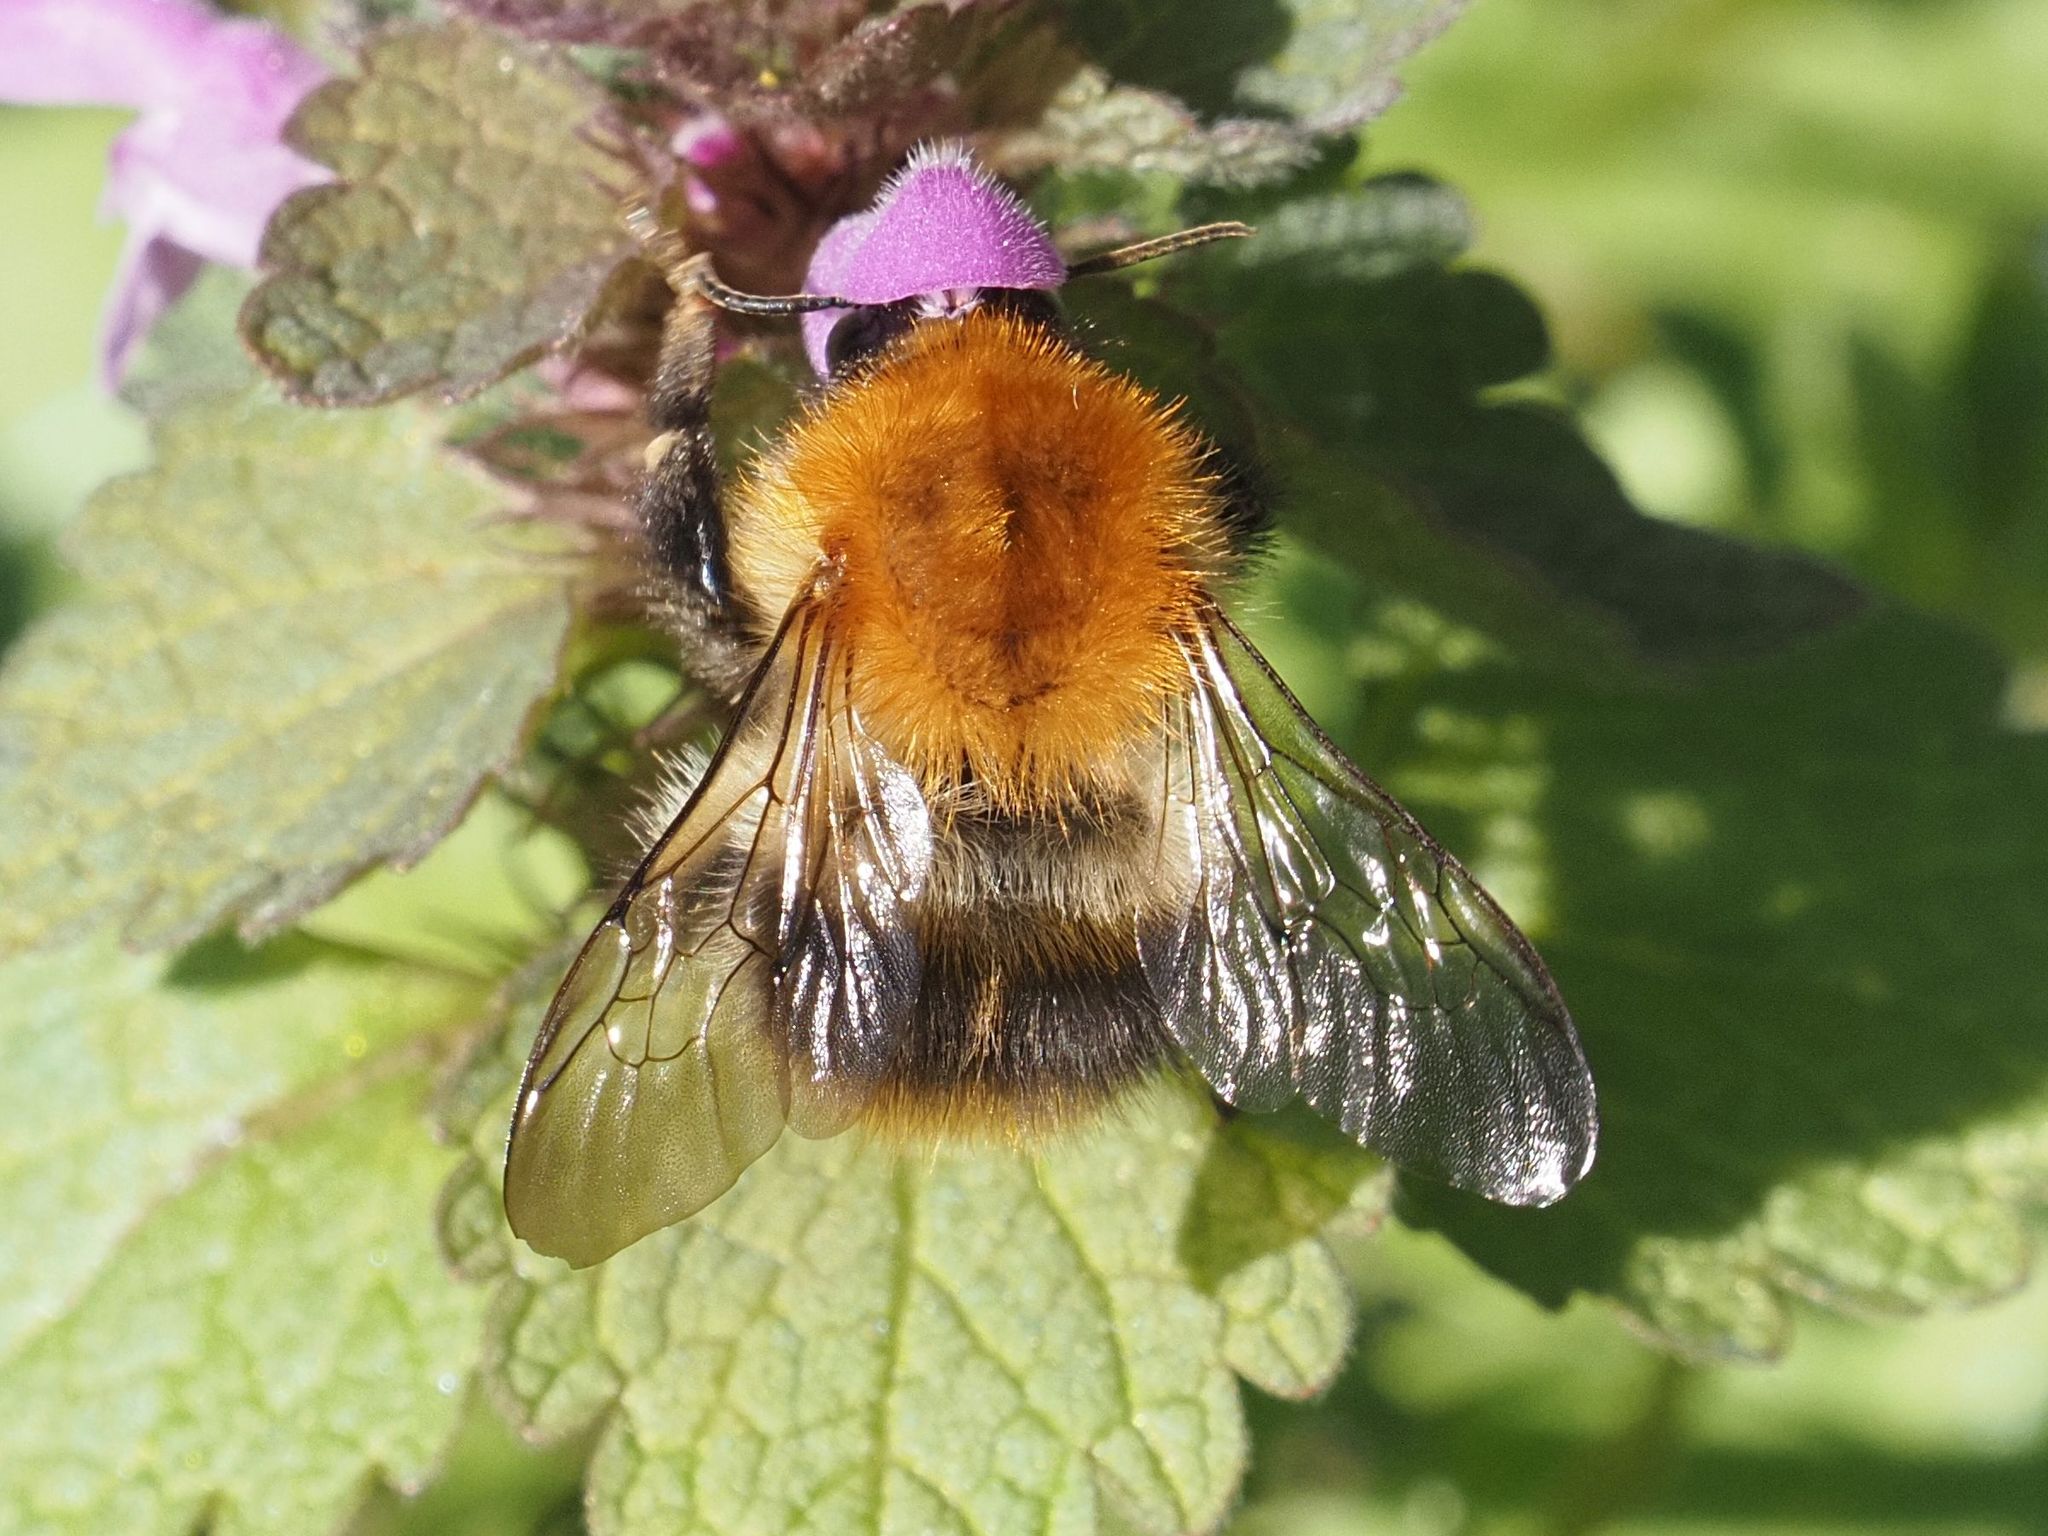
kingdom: Animalia
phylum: Arthropoda
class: Insecta
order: Hymenoptera
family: Apidae
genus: Bombus
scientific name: Bombus pascuorum
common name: Common carder bee
